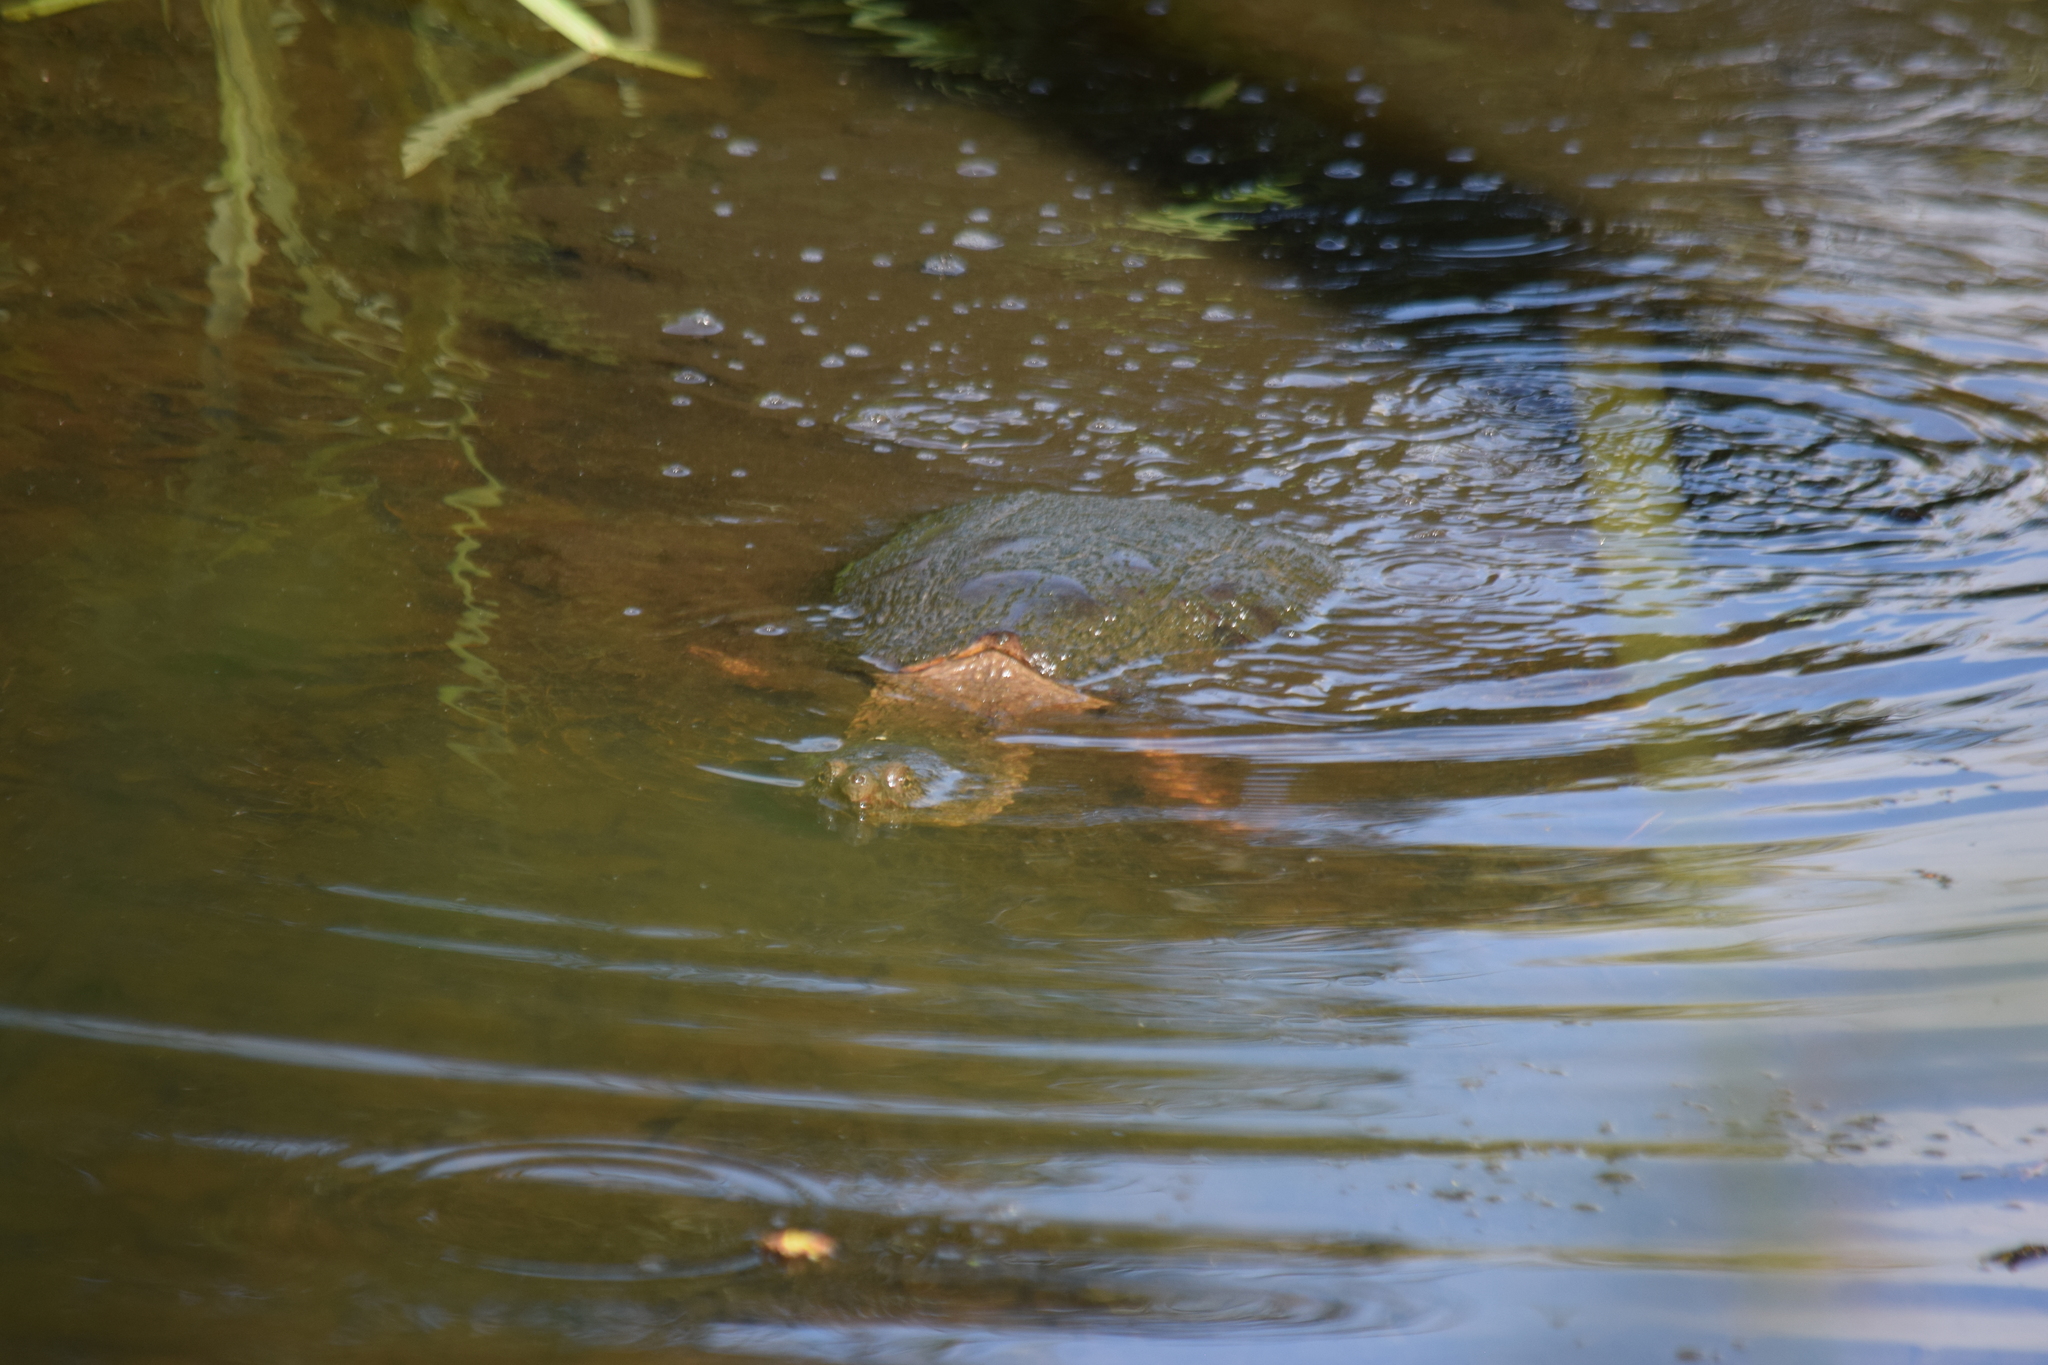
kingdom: Animalia
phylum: Chordata
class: Testudines
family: Chelydridae
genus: Chelydra
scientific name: Chelydra serpentina
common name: Common snapping turtle
